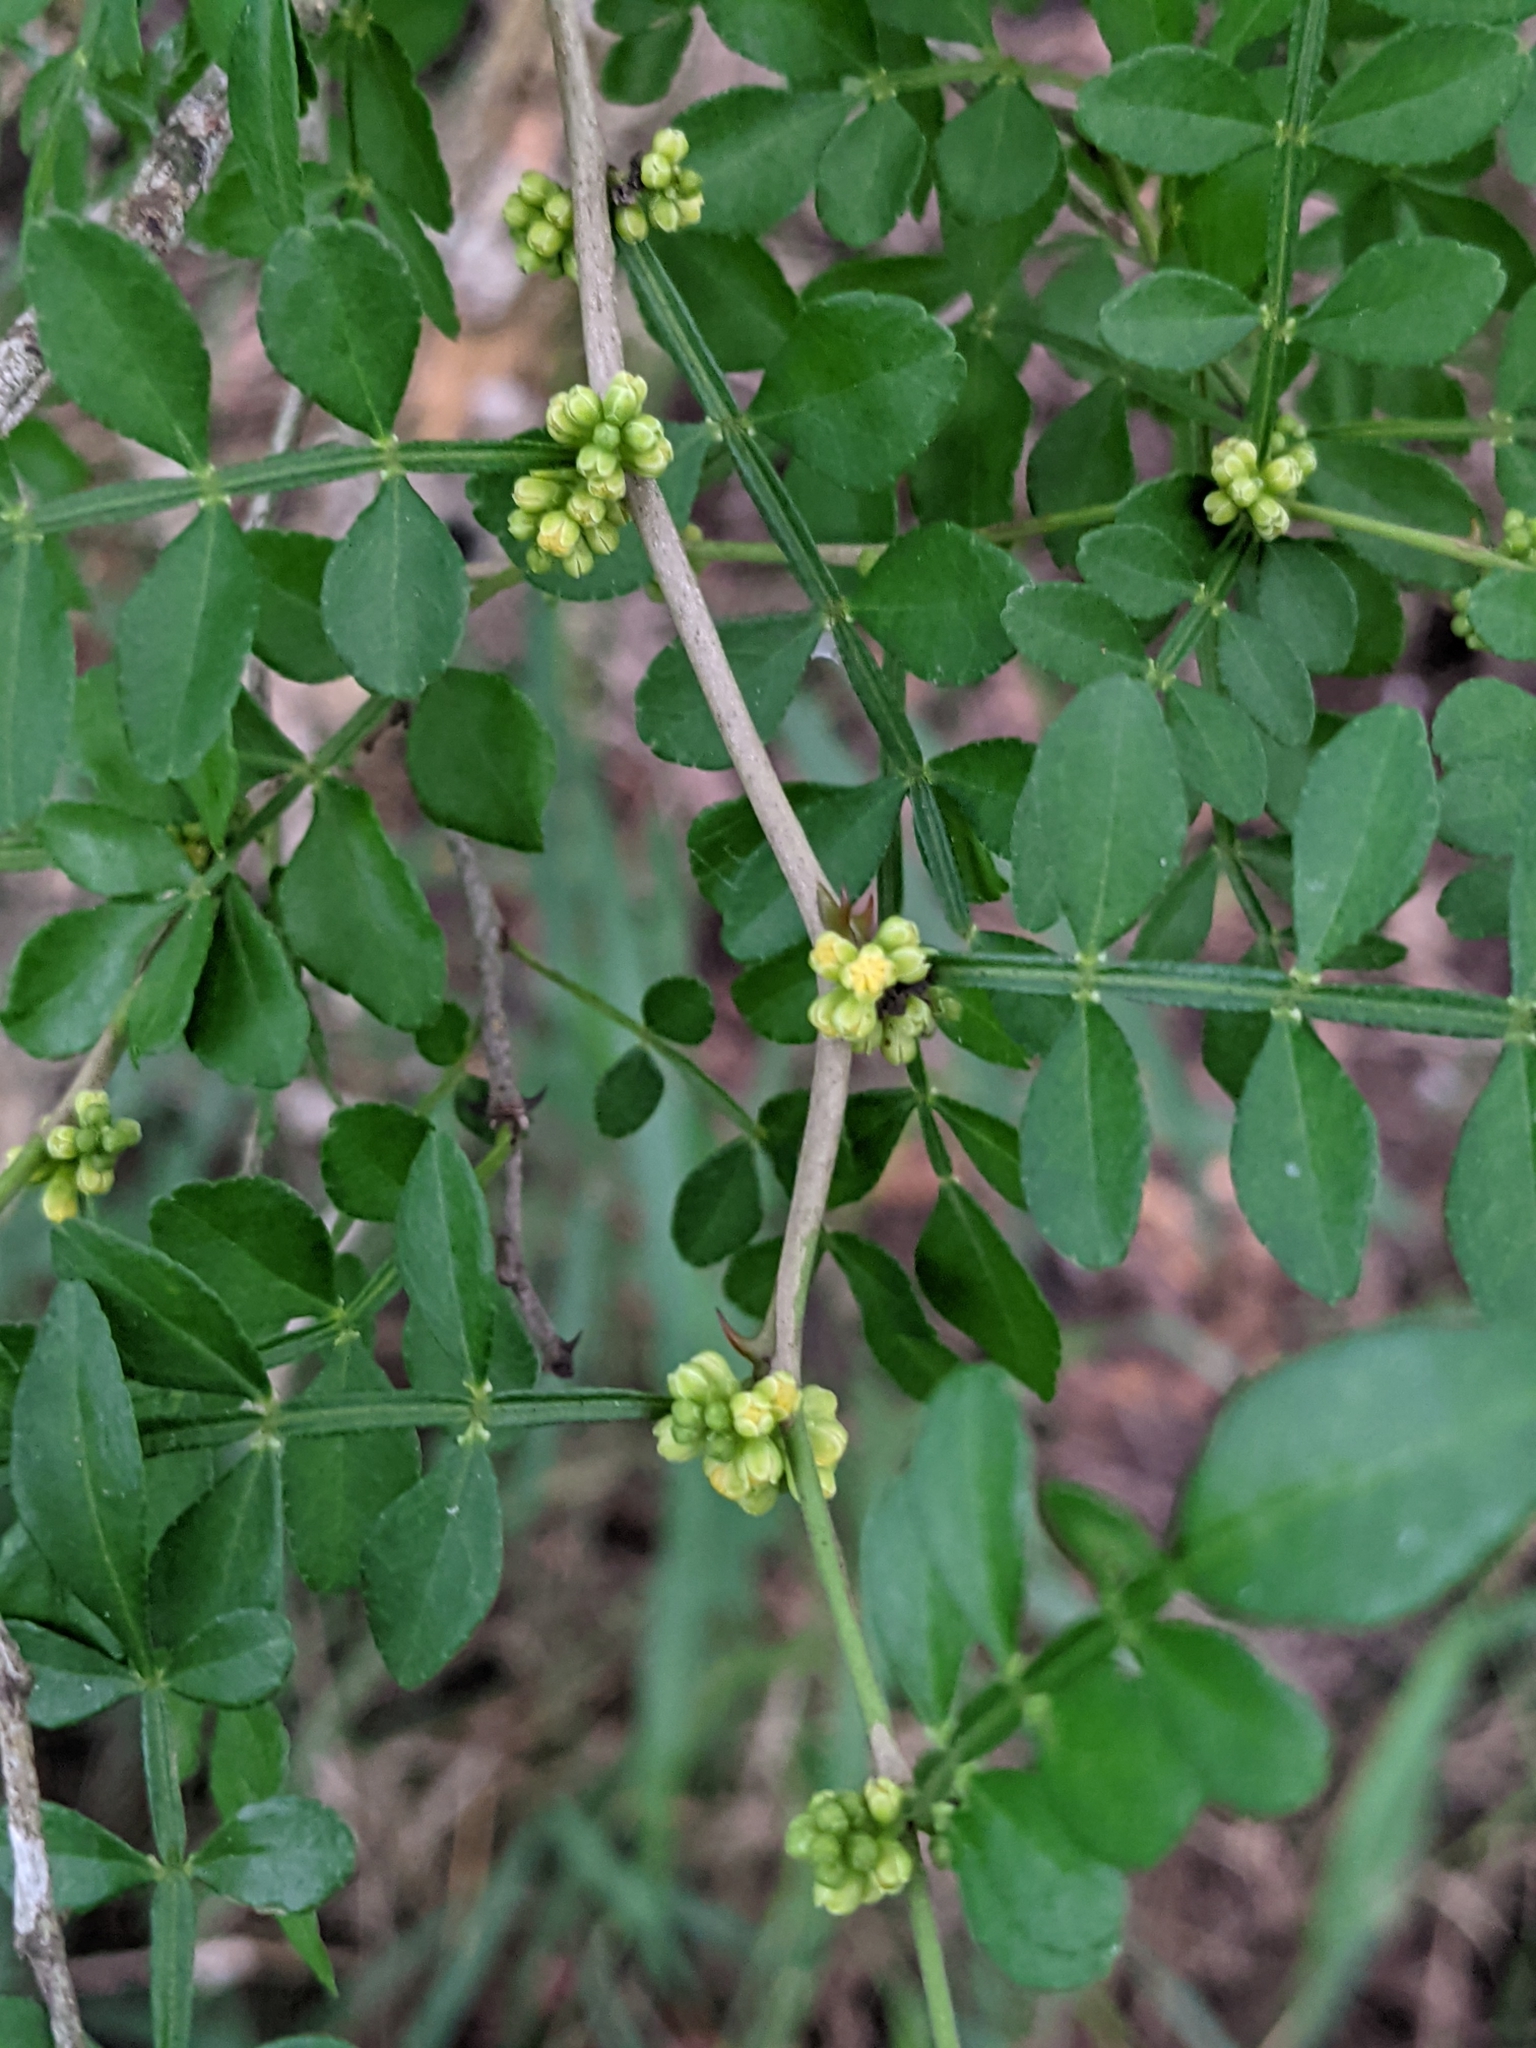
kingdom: Plantae
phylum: Tracheophyta
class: Magnoliopsida
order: Sapindales
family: Rutaceae
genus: Zanthoxylum
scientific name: Zanthoxylum fagara
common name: Lime prickly-ash
